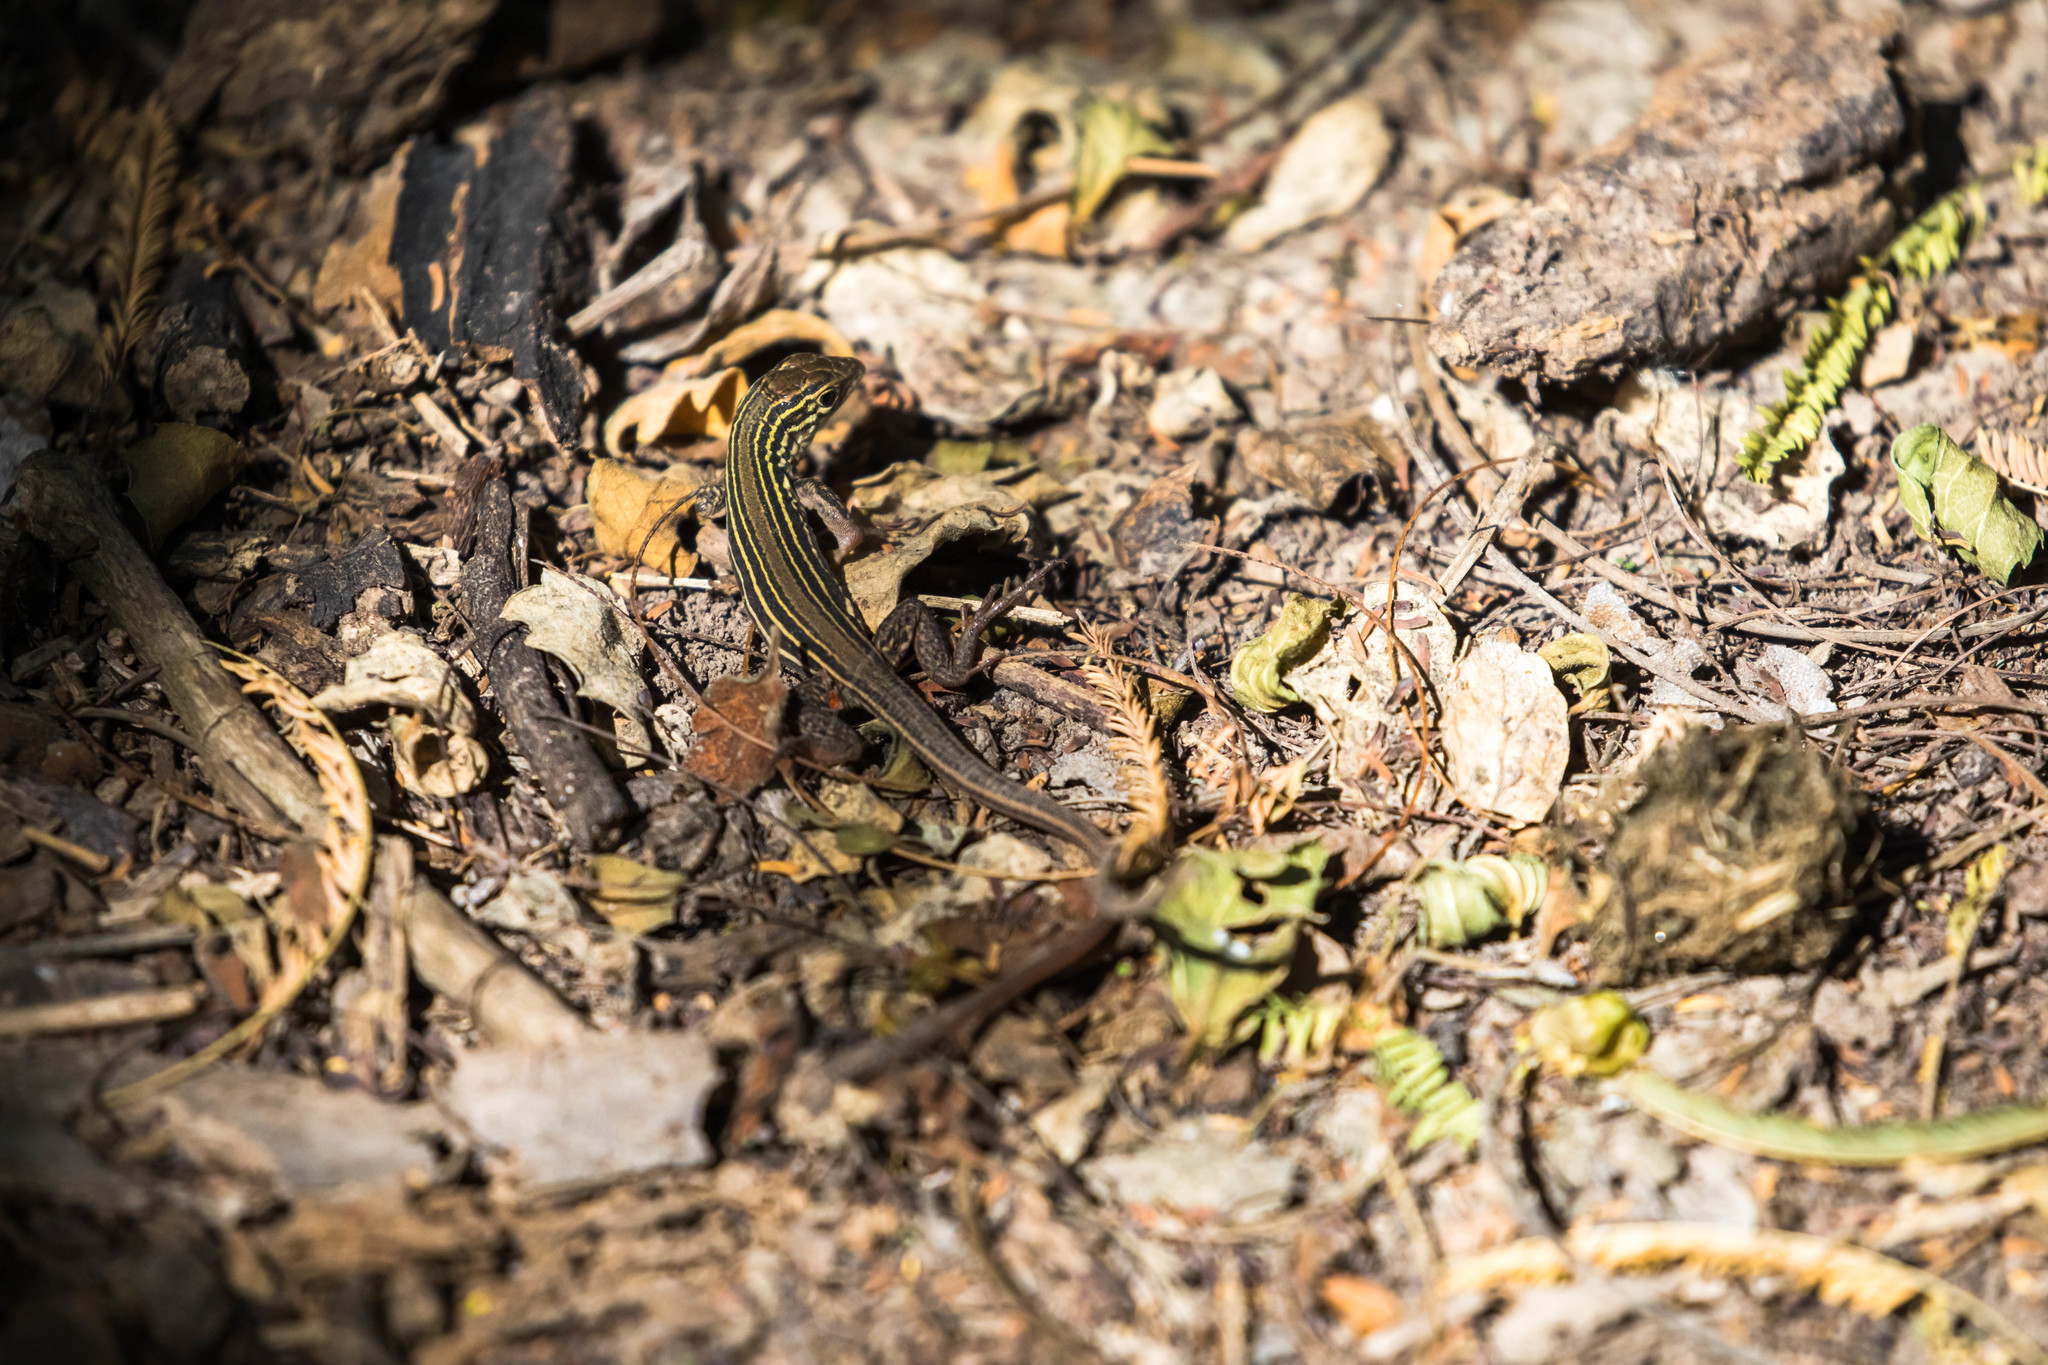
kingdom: Animalia
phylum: Chordata
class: Squamata
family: Teiidae
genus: Aspidoscelis
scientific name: Aspidoscelis gularis
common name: Eastern spotted whiptail
